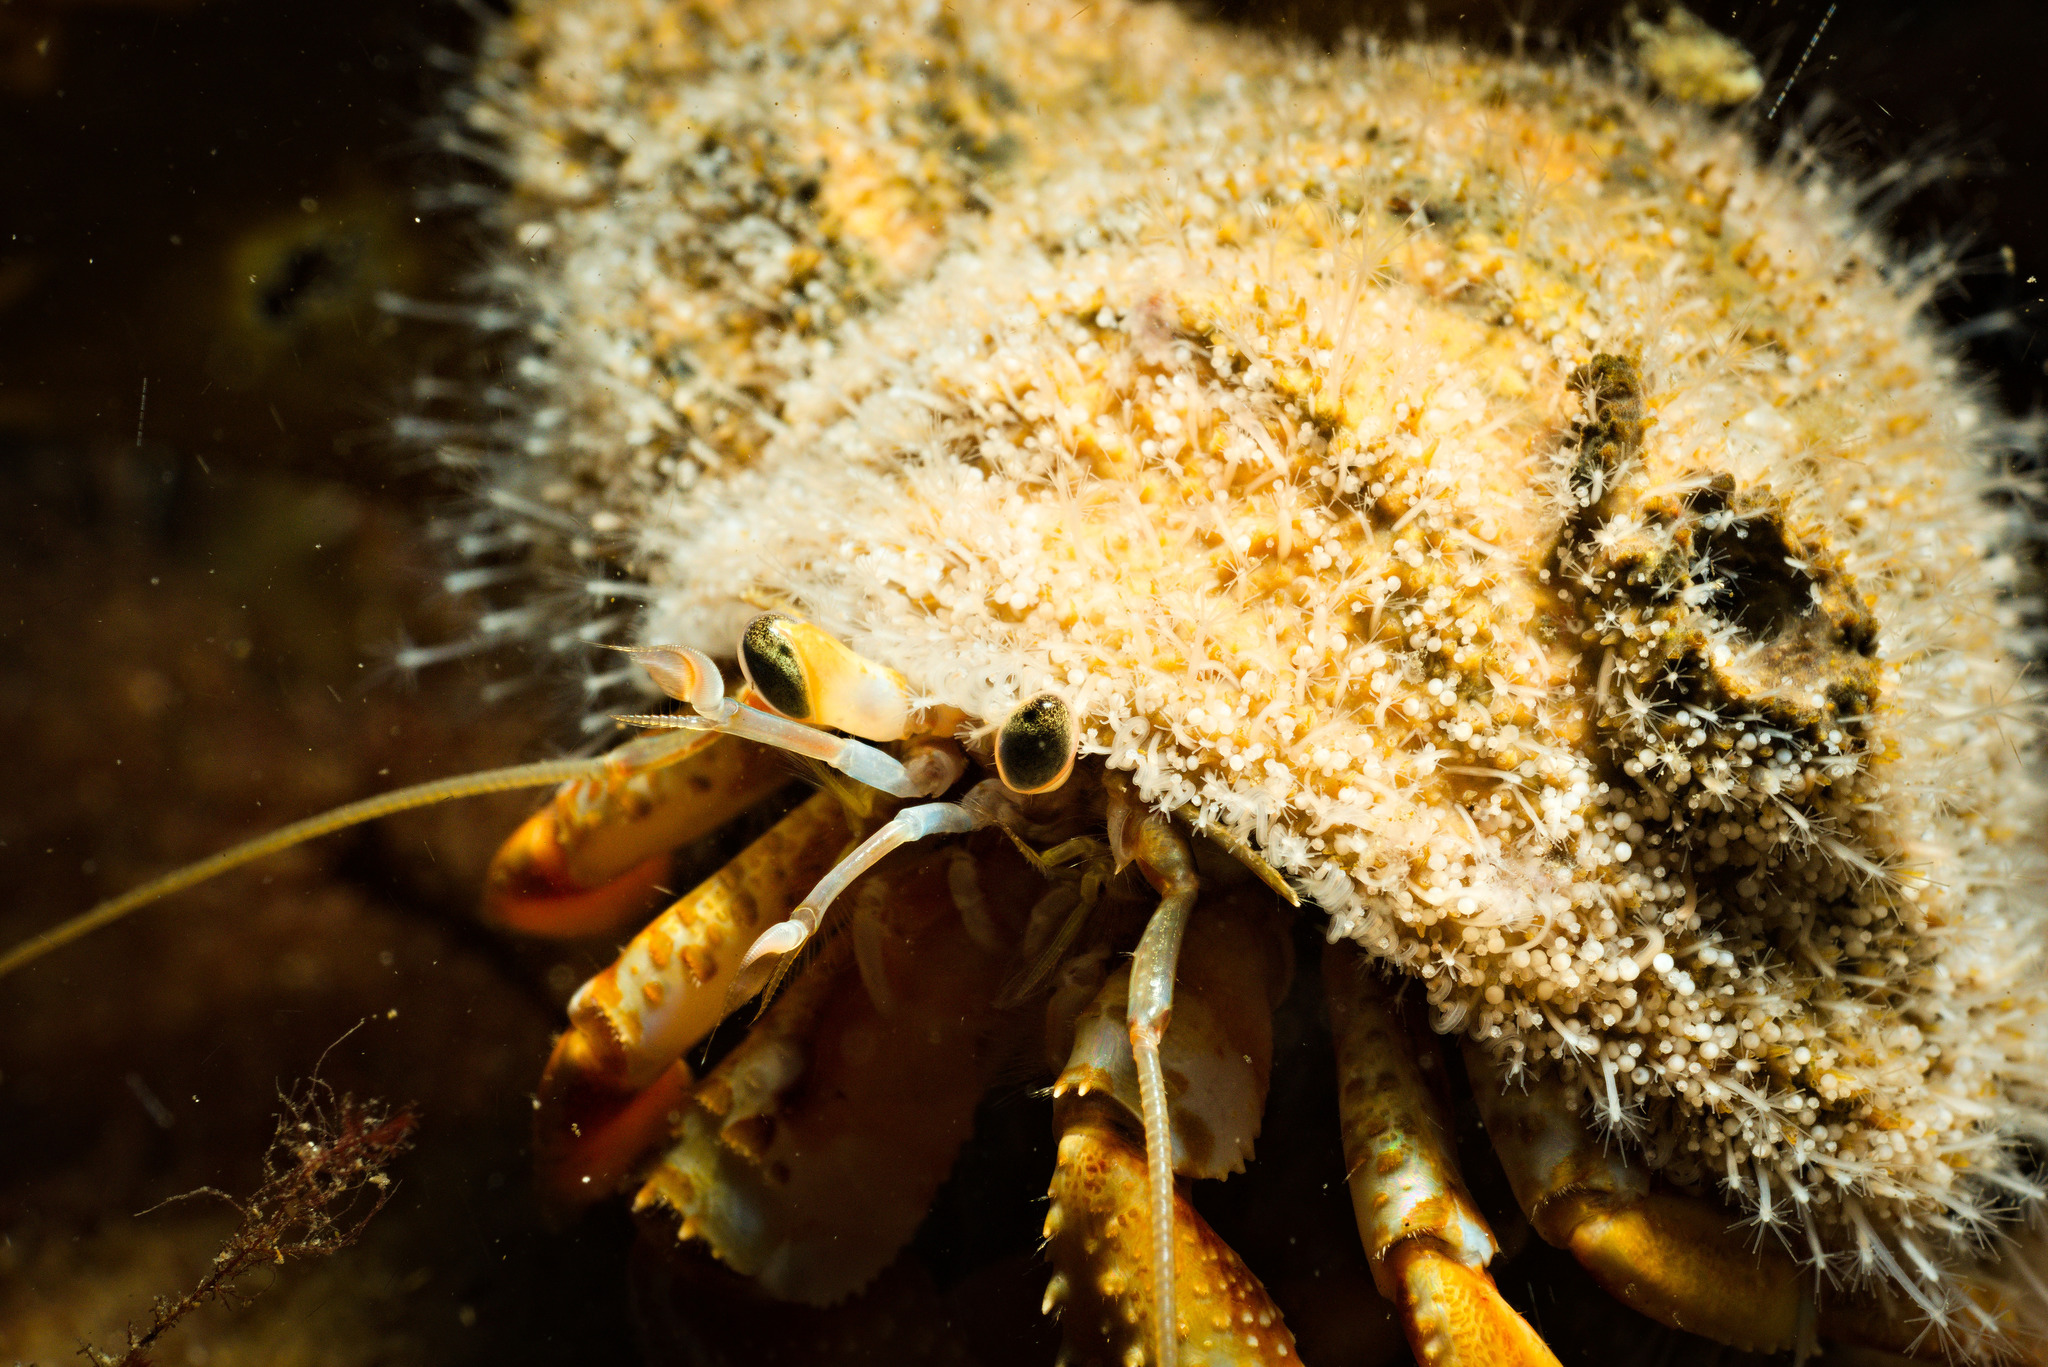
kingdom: Animalia
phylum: Arthropoda
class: Malacostraca
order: Decapoda
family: Paguridae
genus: Pagurus
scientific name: Pagurus bernhardus
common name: Hermit crab
